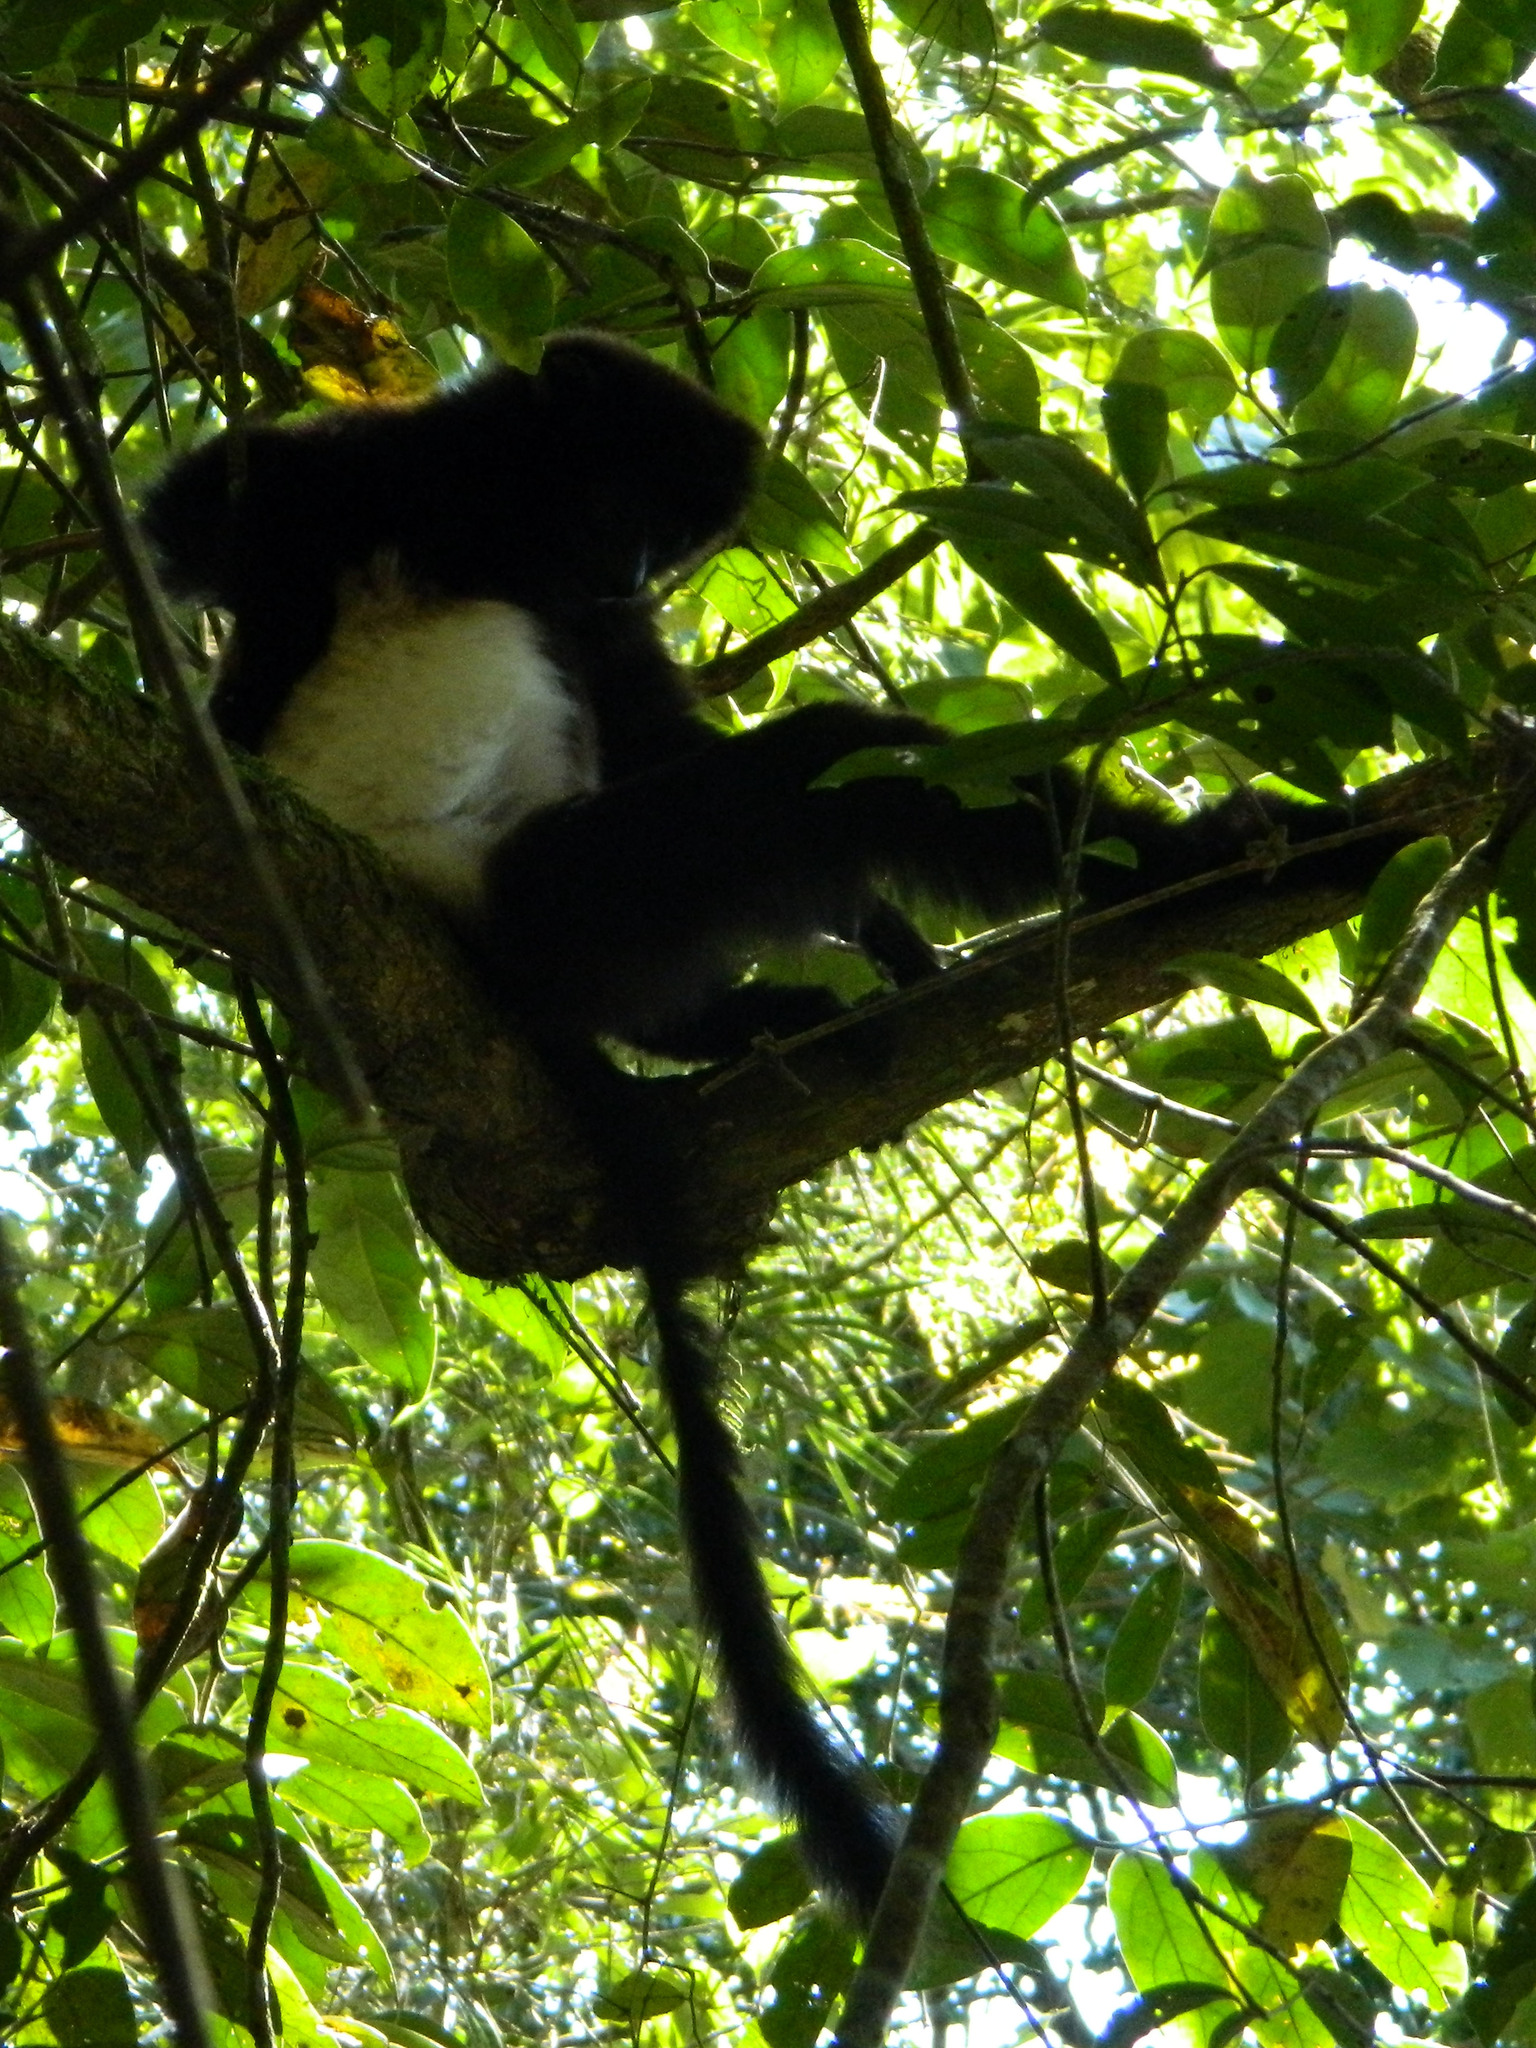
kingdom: Animalia
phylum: Chordata
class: Mammalia
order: Primates
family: Indriidae
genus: Propithecus
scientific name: Propithecus edwardsi
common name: Milne-edwards’s simpona
